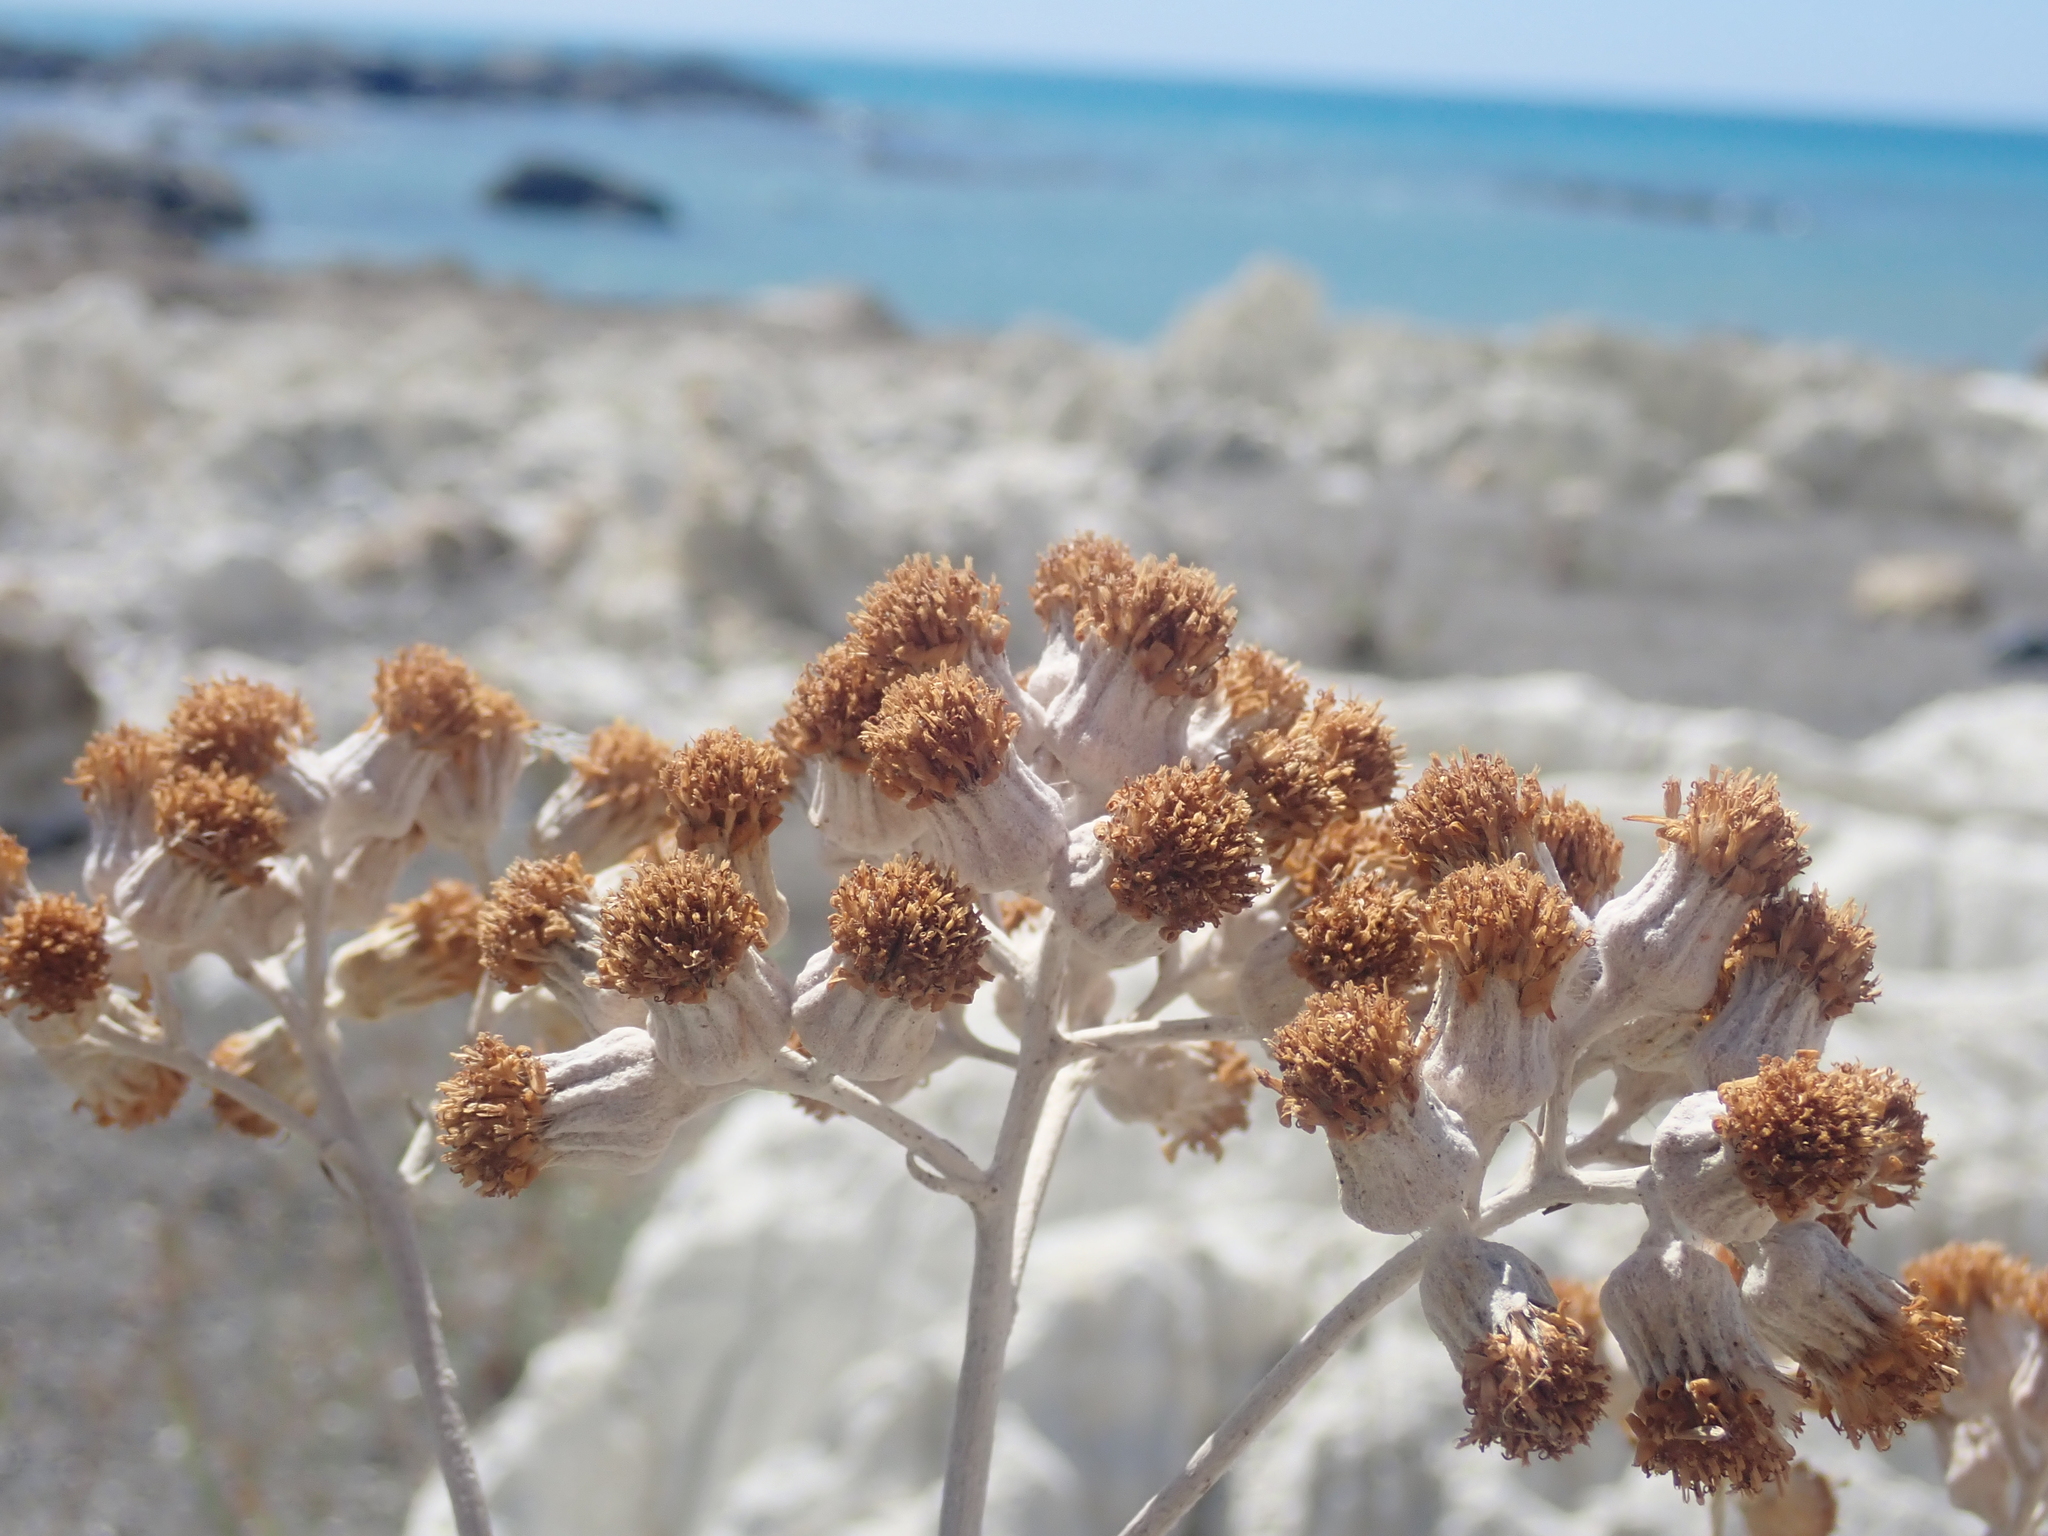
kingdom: Plantae
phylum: Tracheophyta
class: Magnoliopsida
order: Asterales
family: Asteraceae
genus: Jacobaea
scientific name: Jacobaea maritima
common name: Silver ragwort
